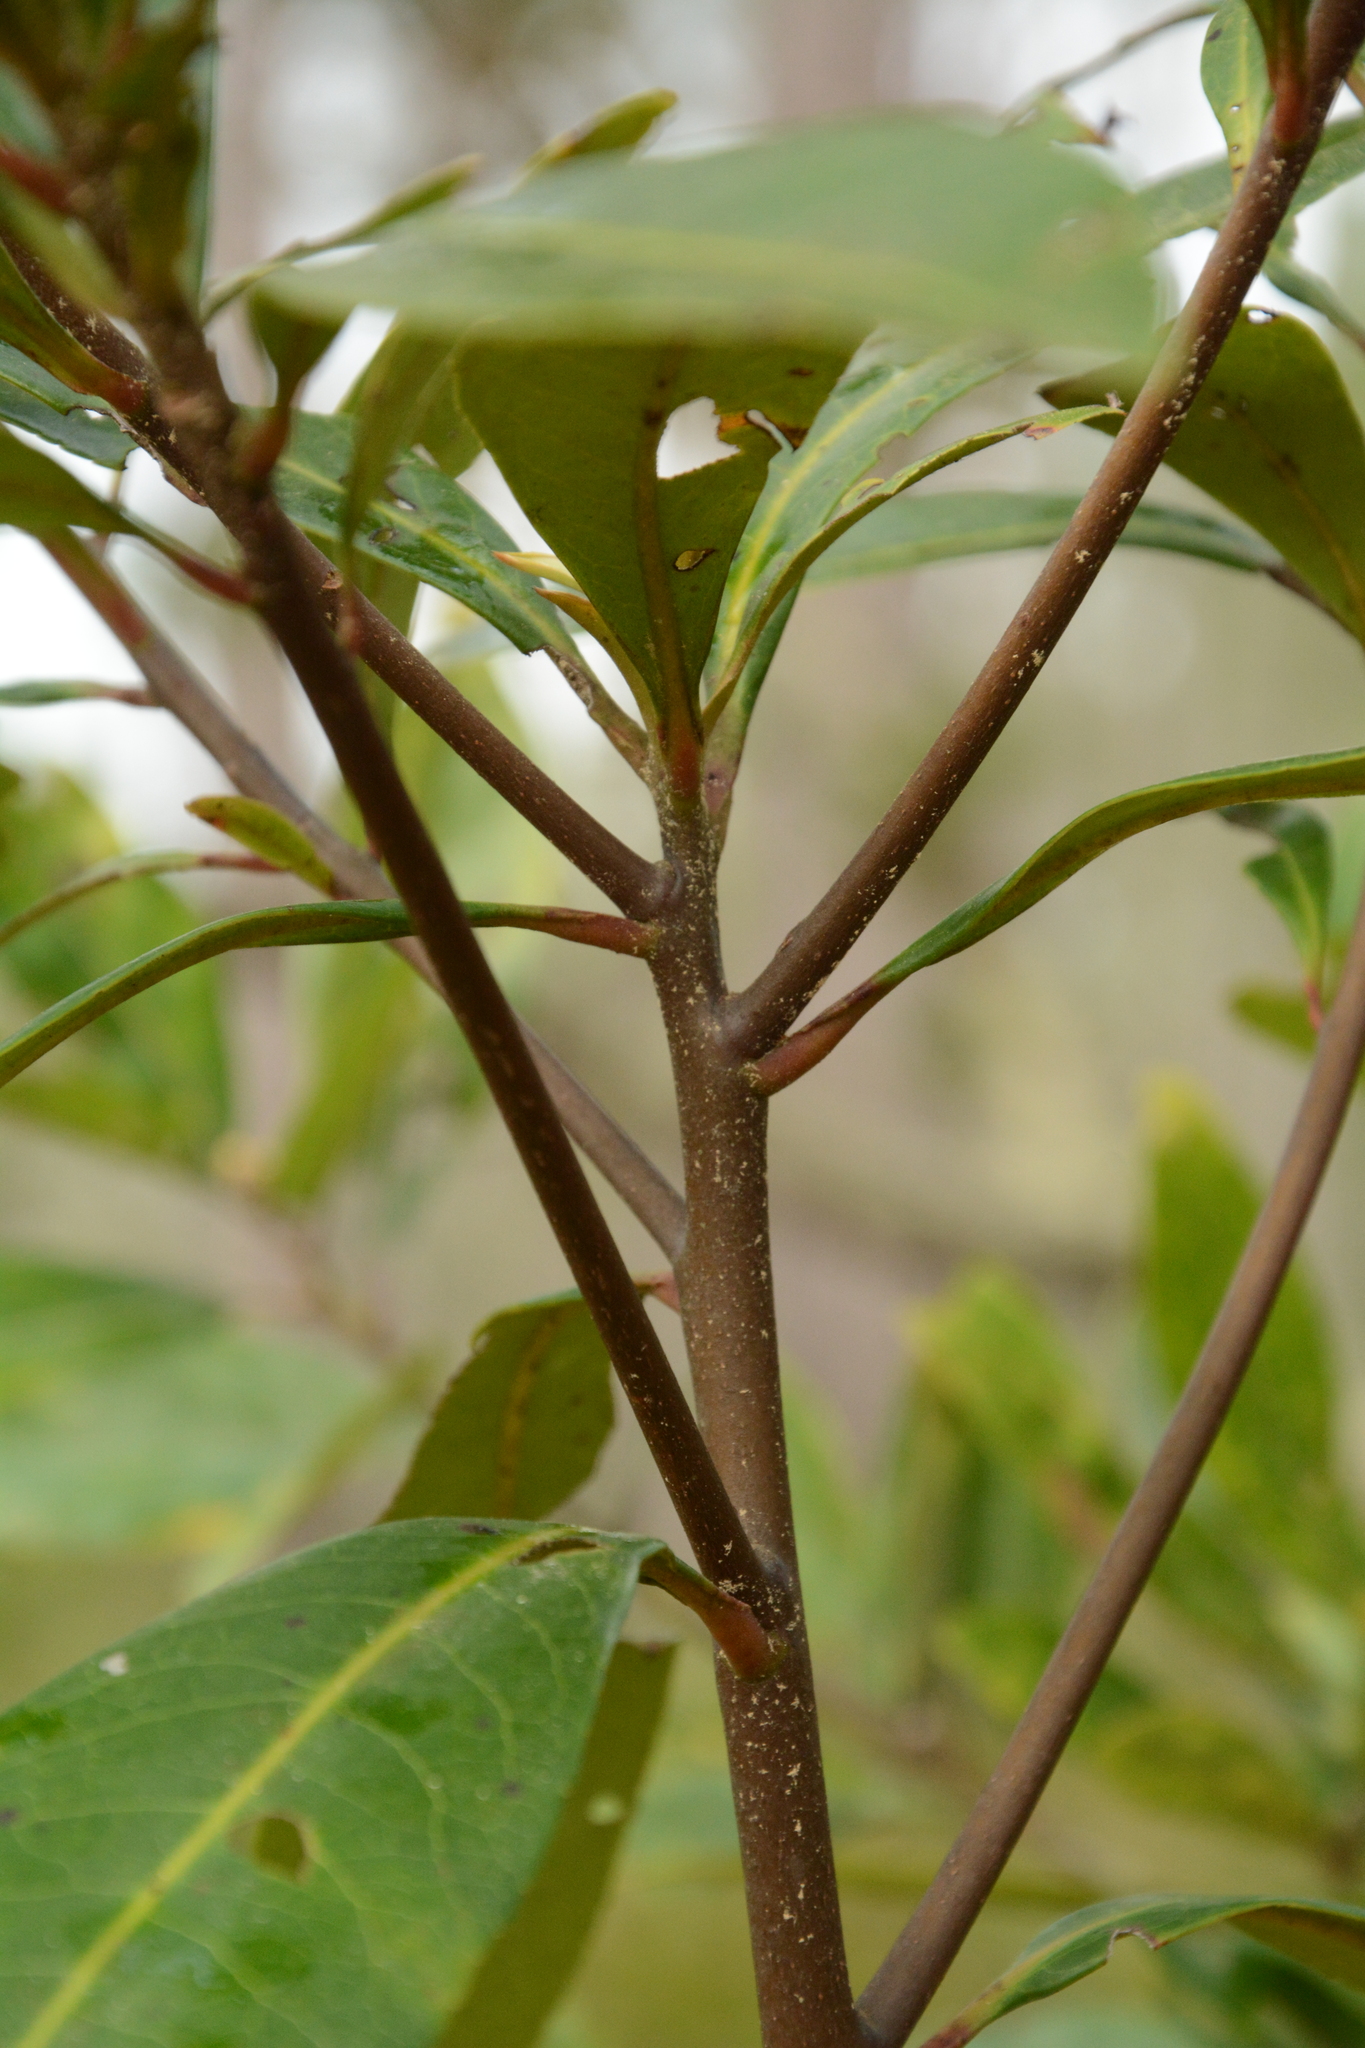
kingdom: Plantae
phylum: Tracheophyta
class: Magnoliopsida
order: Ericales
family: Theaceae
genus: Gordonia
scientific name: Gordonia lasianthus
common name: Loblolly bay
